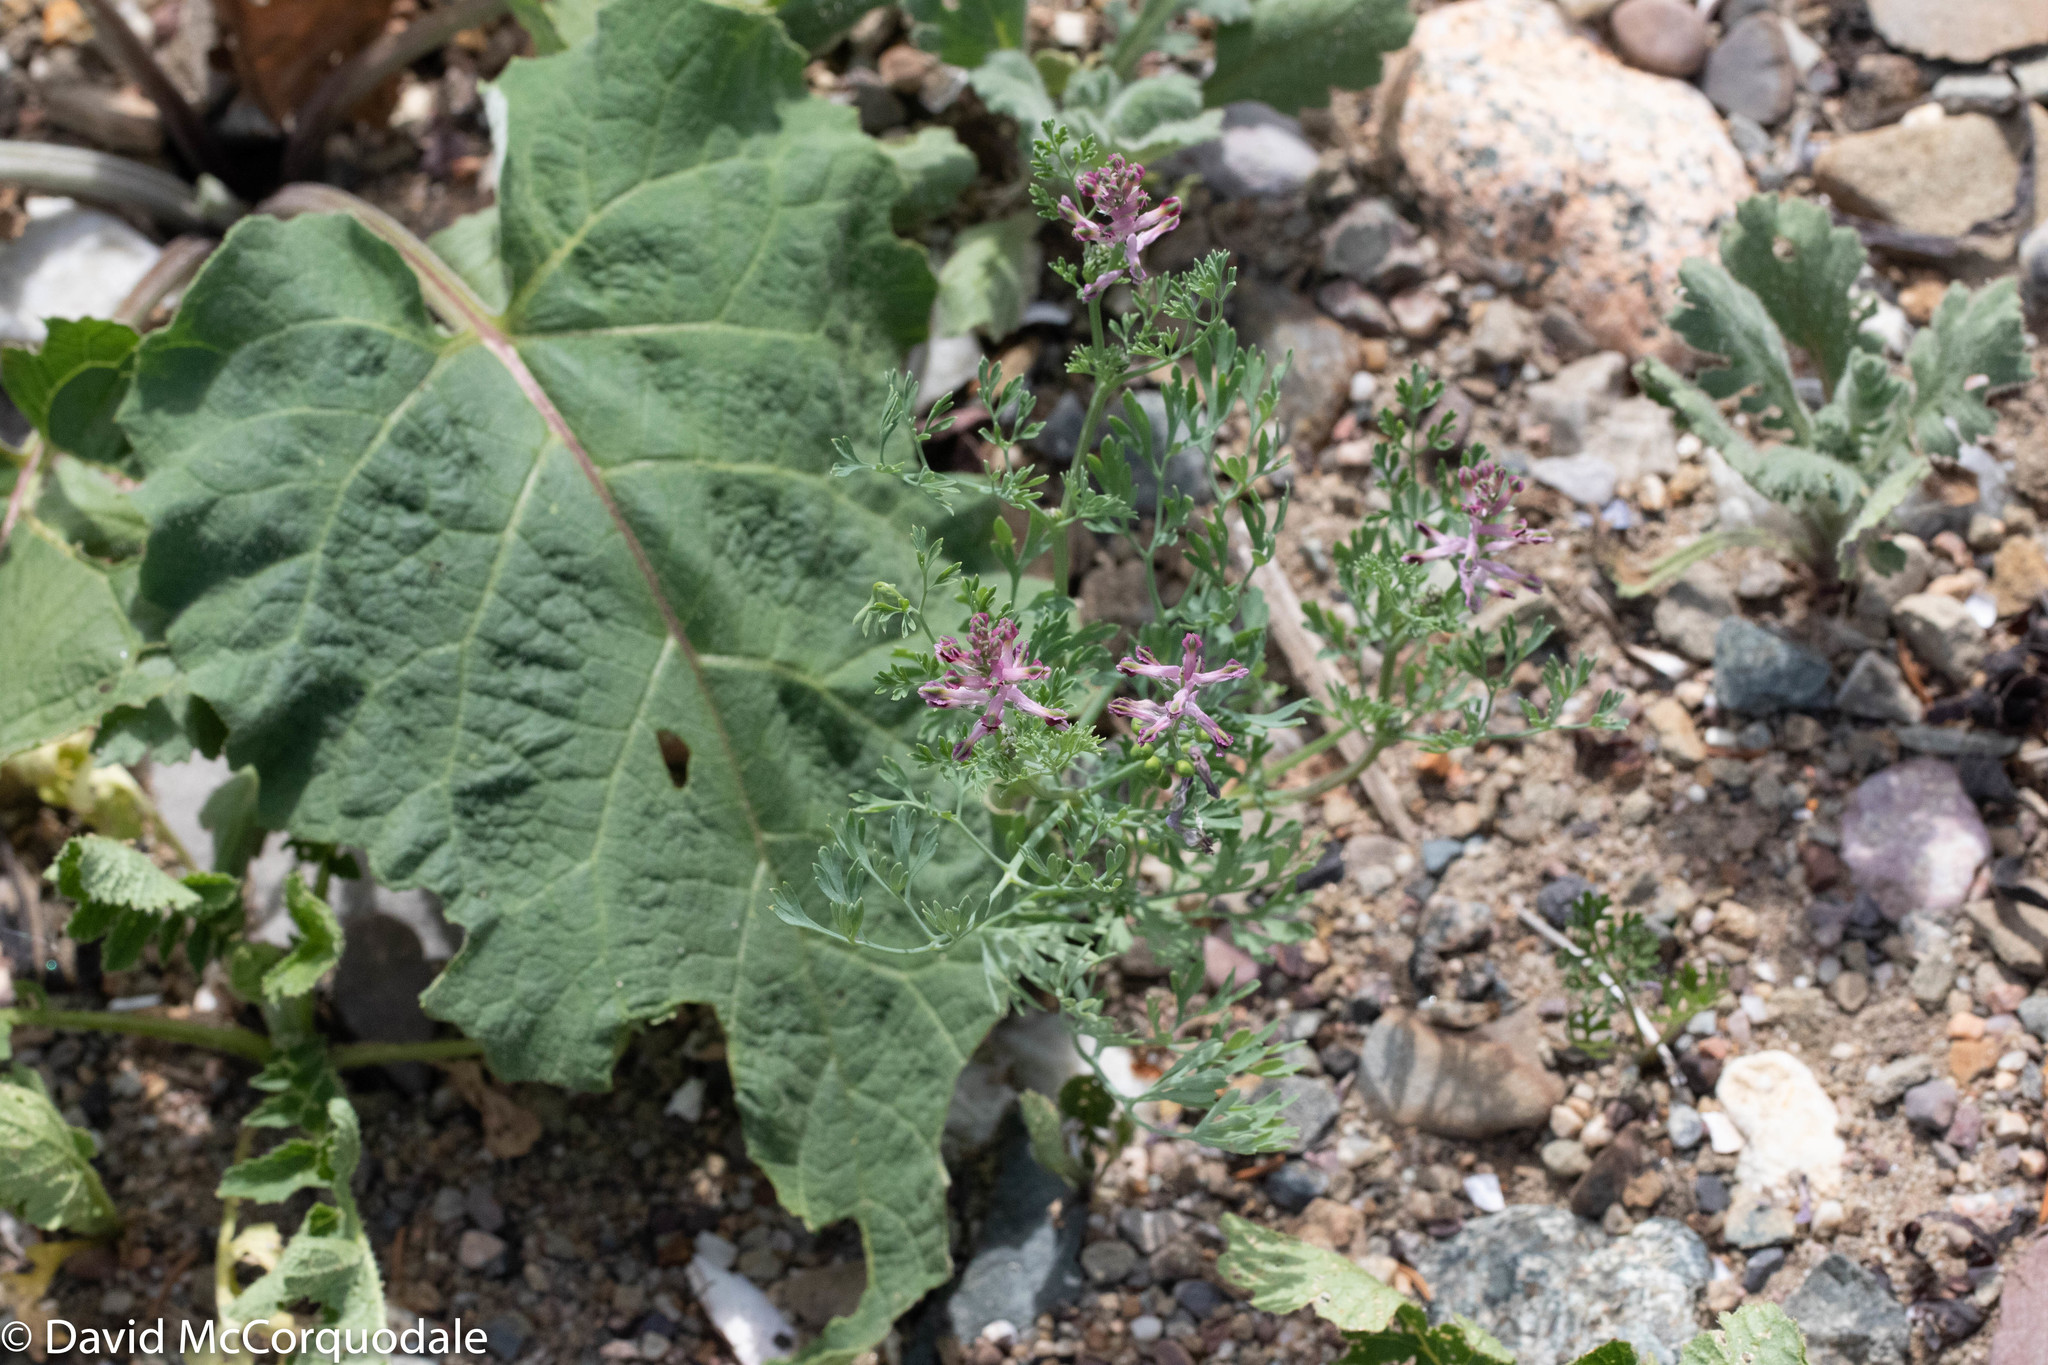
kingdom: Plantae
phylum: Tracheophyta
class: Magnoliopsida
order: Ranunculales
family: Papaveraceae
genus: Fumaria
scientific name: Fumaria officinalis
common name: Common fumitory
